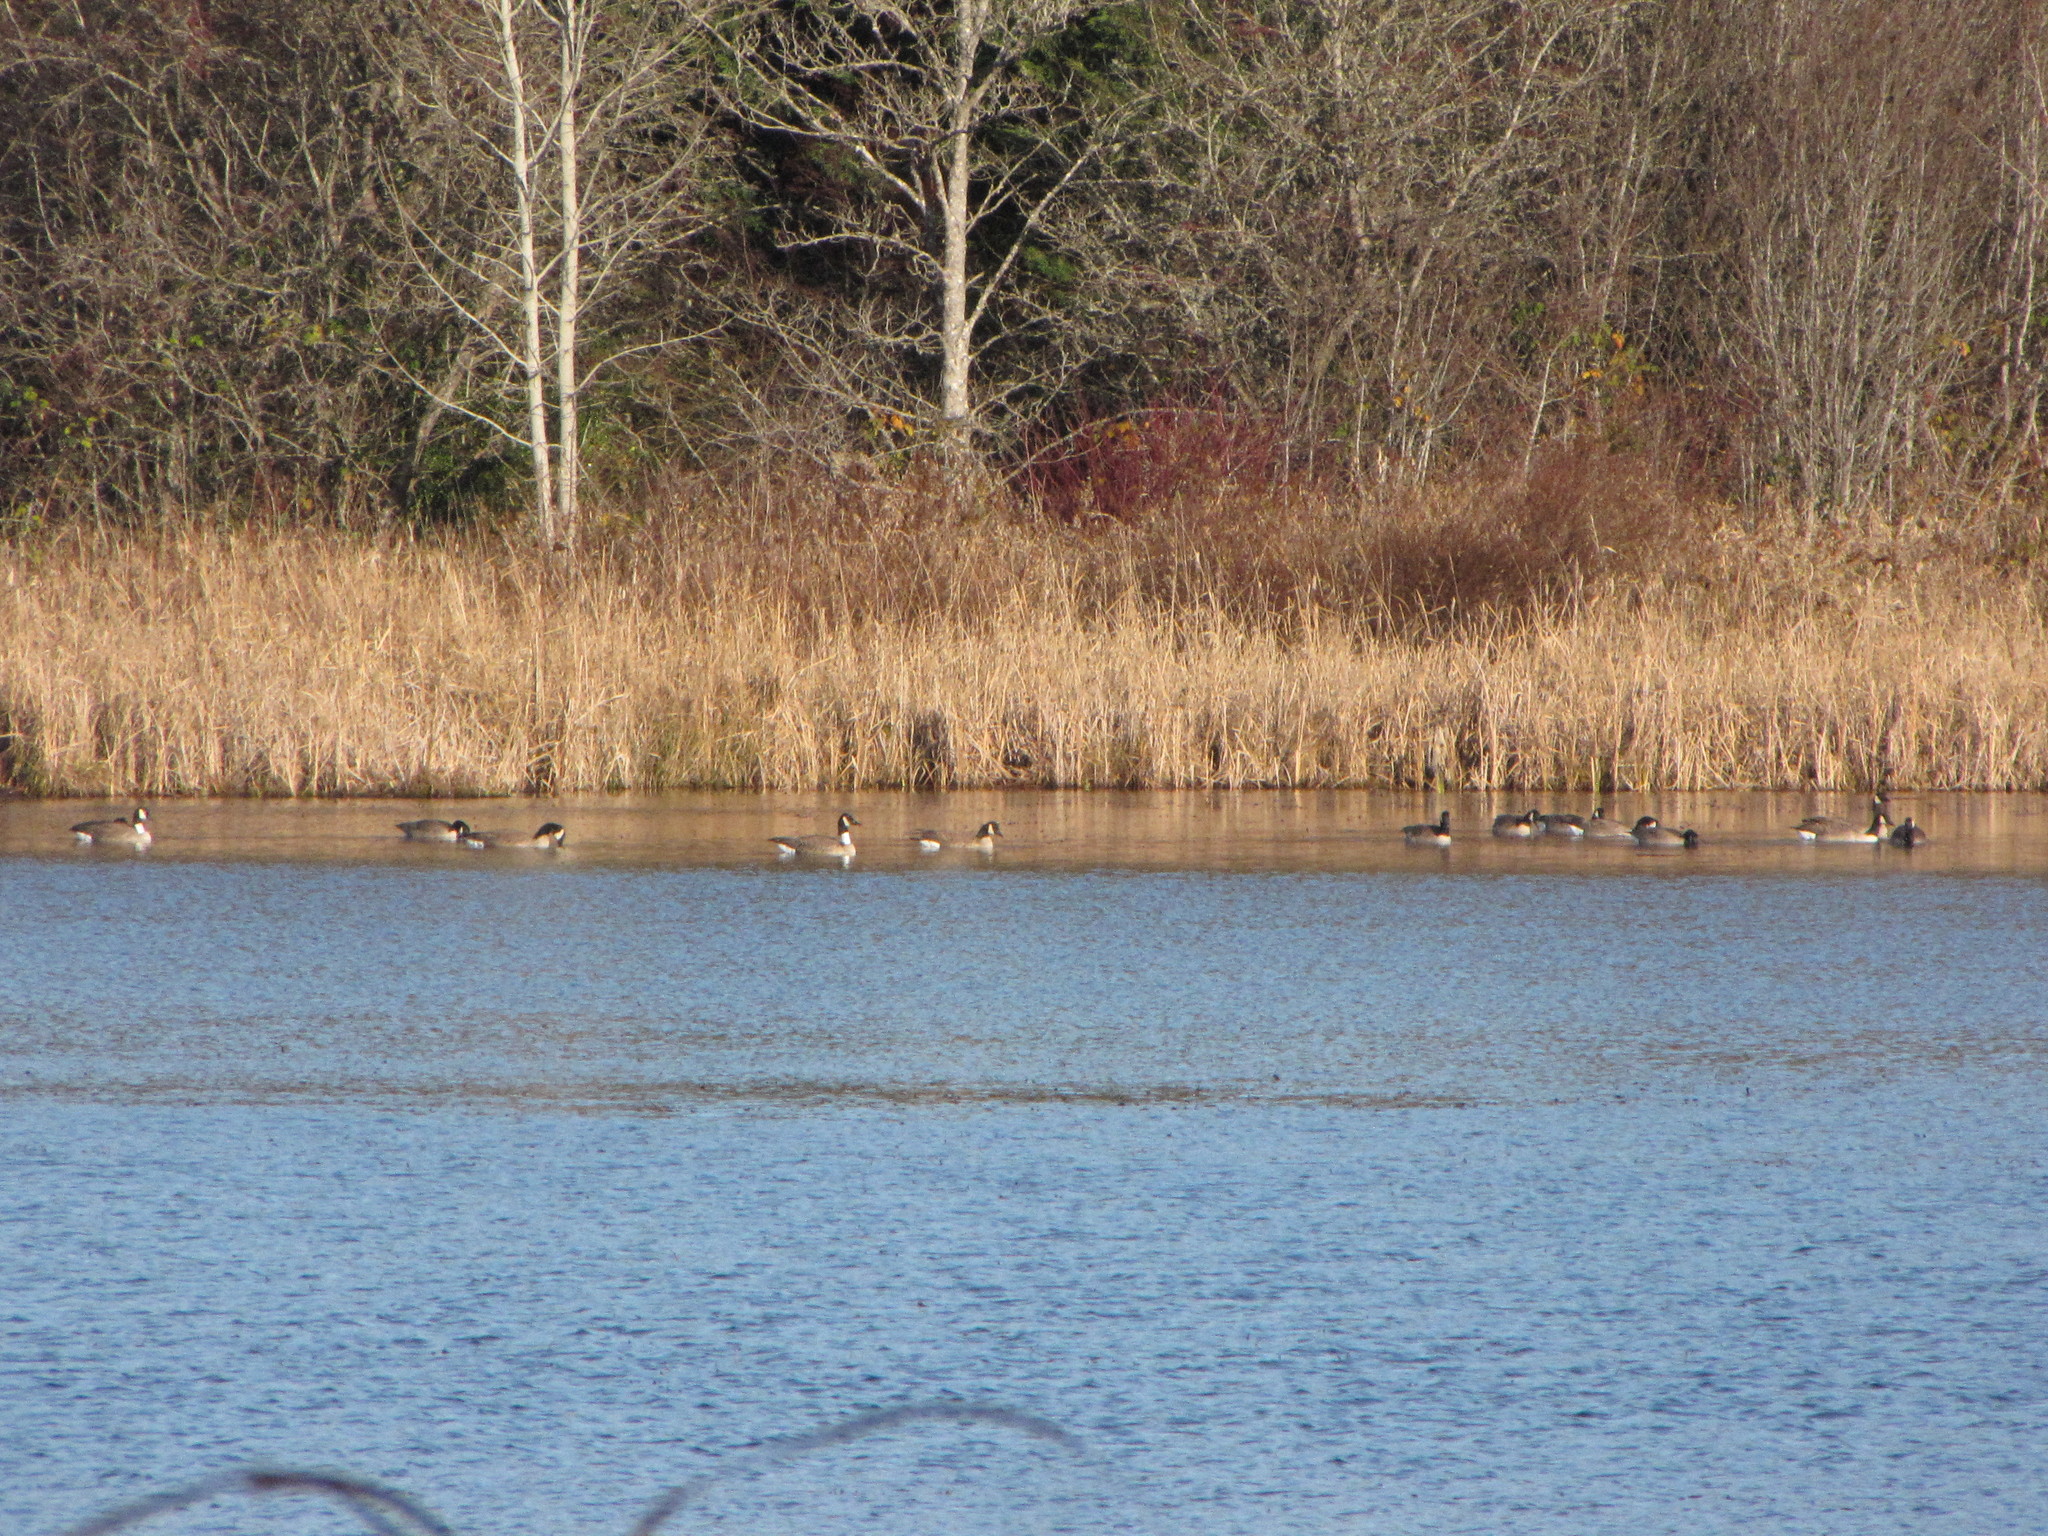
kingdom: Animalia
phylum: Chordata
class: Aves
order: Anseriformes
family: Anatidae
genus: Branta
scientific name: Branta canadensis
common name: Canada goose
